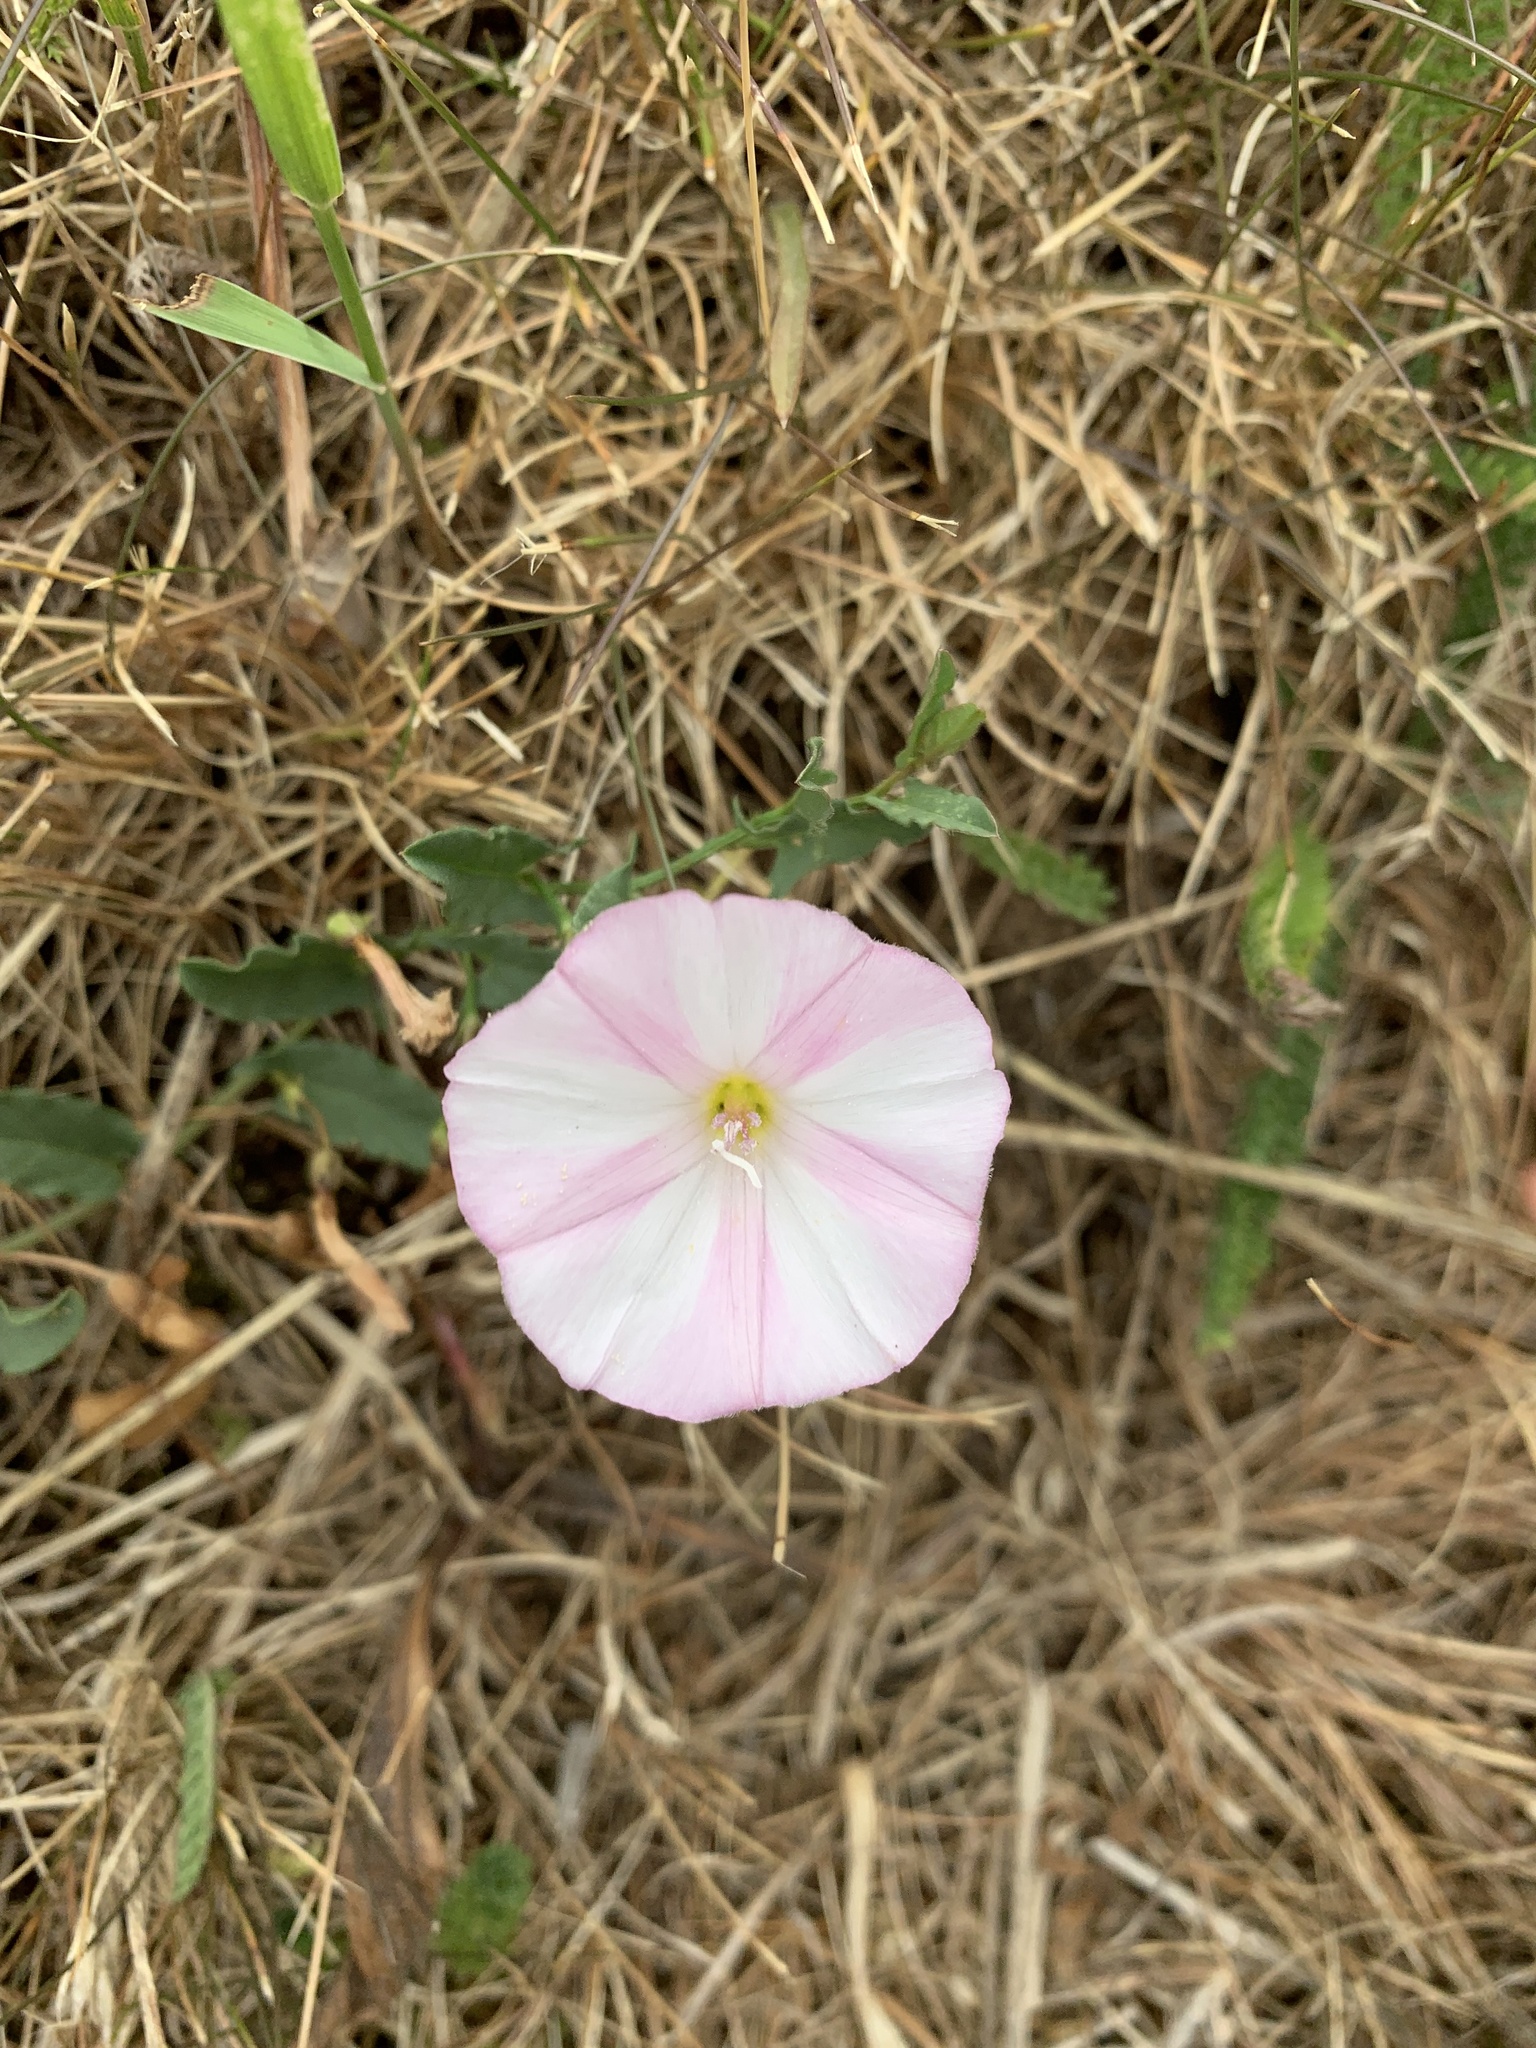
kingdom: Plantae
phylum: Tracheophyta
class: Magnoliopsida
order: Solanales
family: Convolvulaceae
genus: Convolvulus
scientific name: Convolvulus arvensis
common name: Field bindweed
